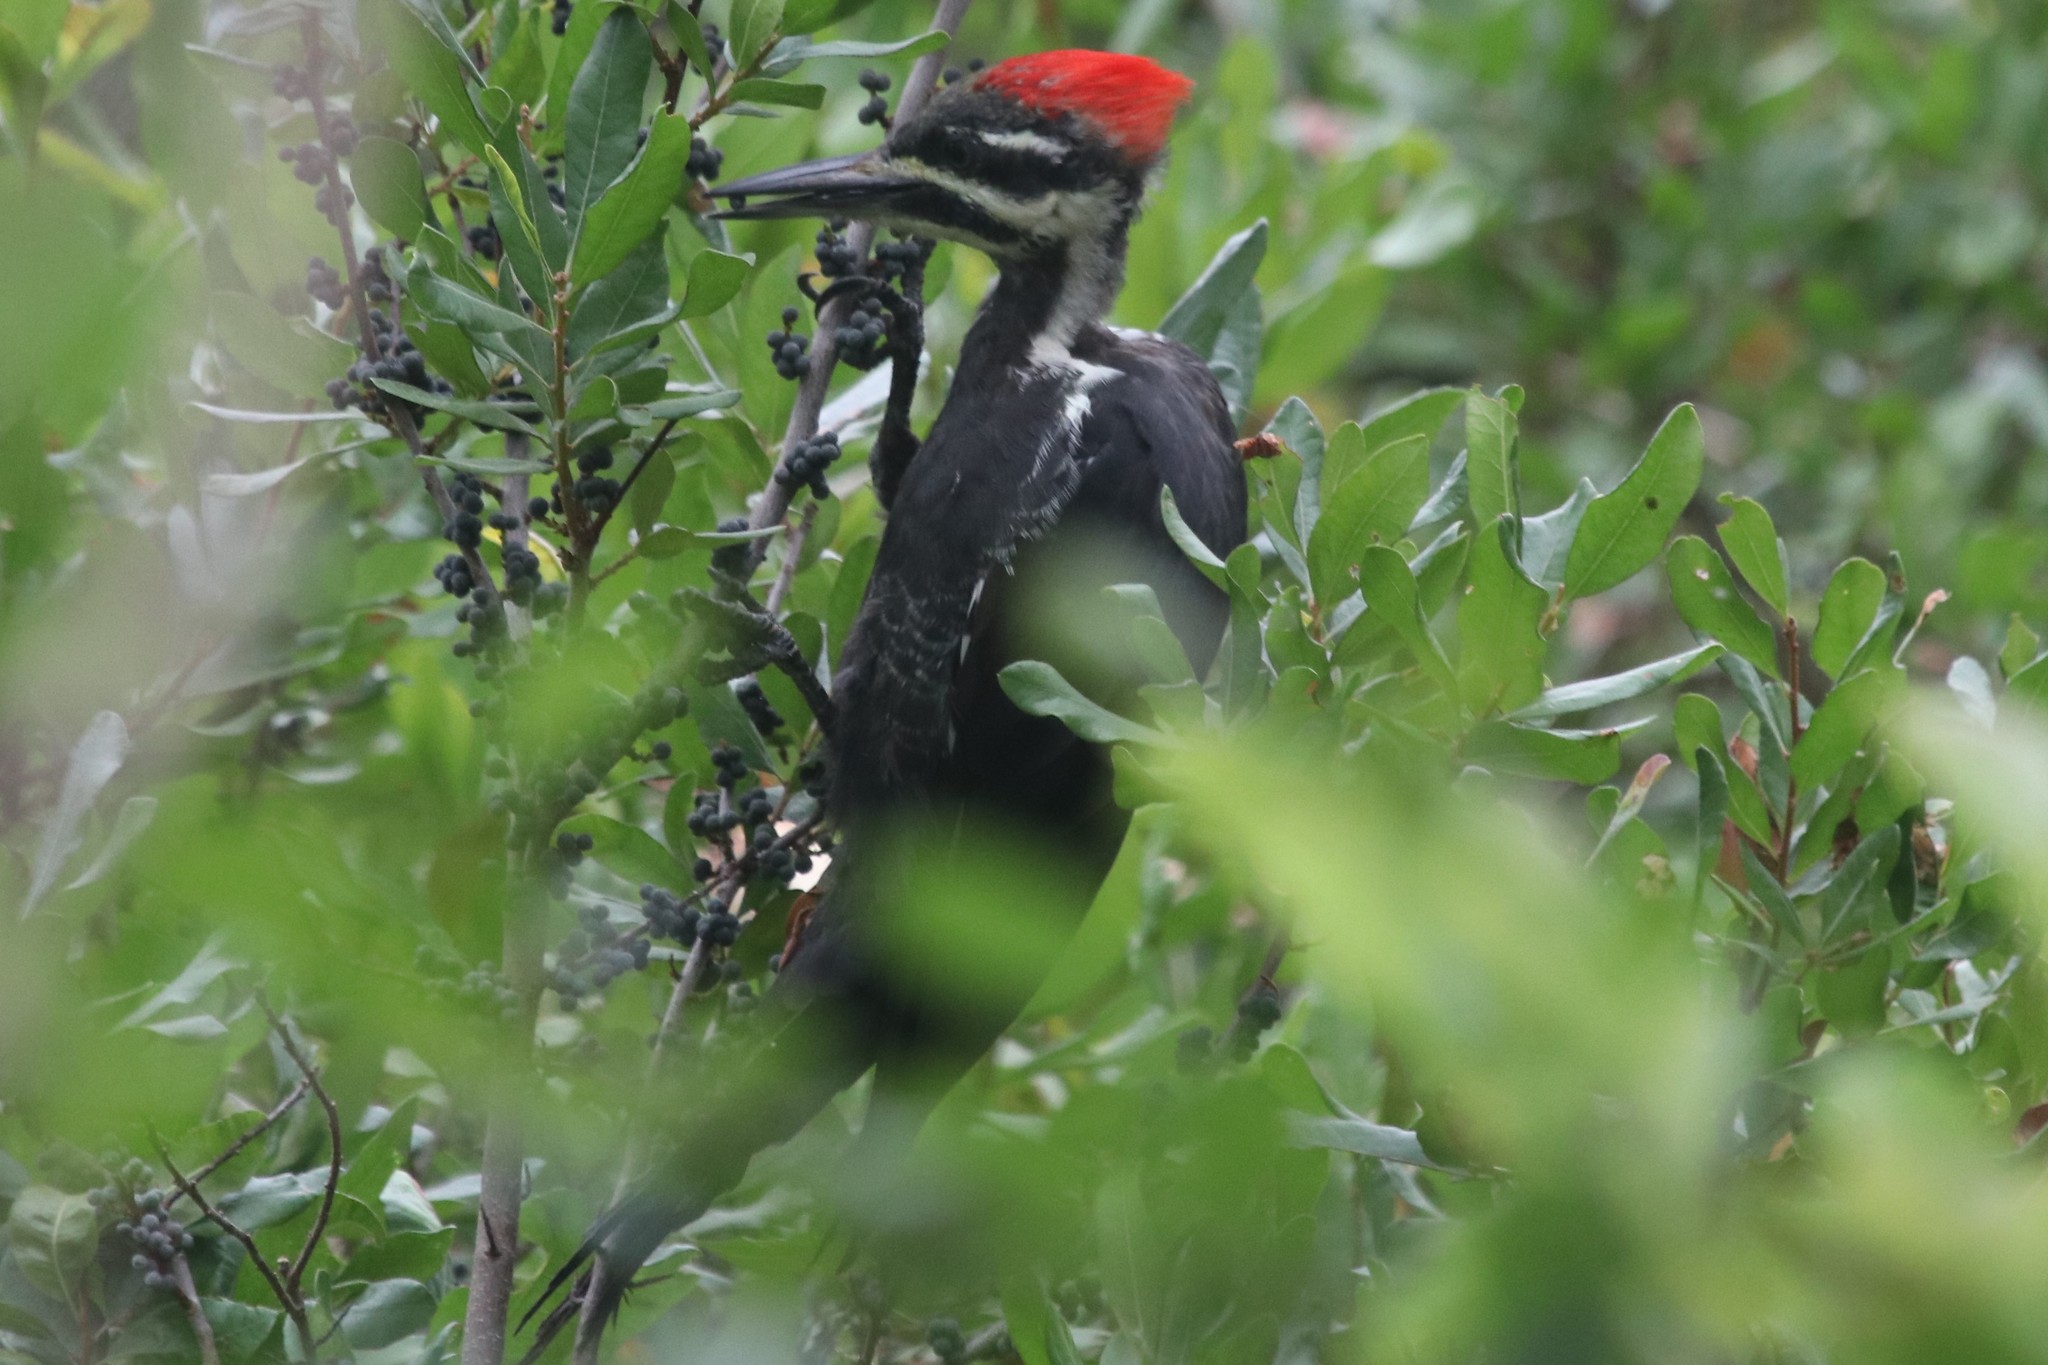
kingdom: Animalia
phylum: Chordata
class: Aves
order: Piciformes
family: Picidae
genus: Dryocopus
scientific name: Dryocopus pileatus
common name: Pileated woodpecker
